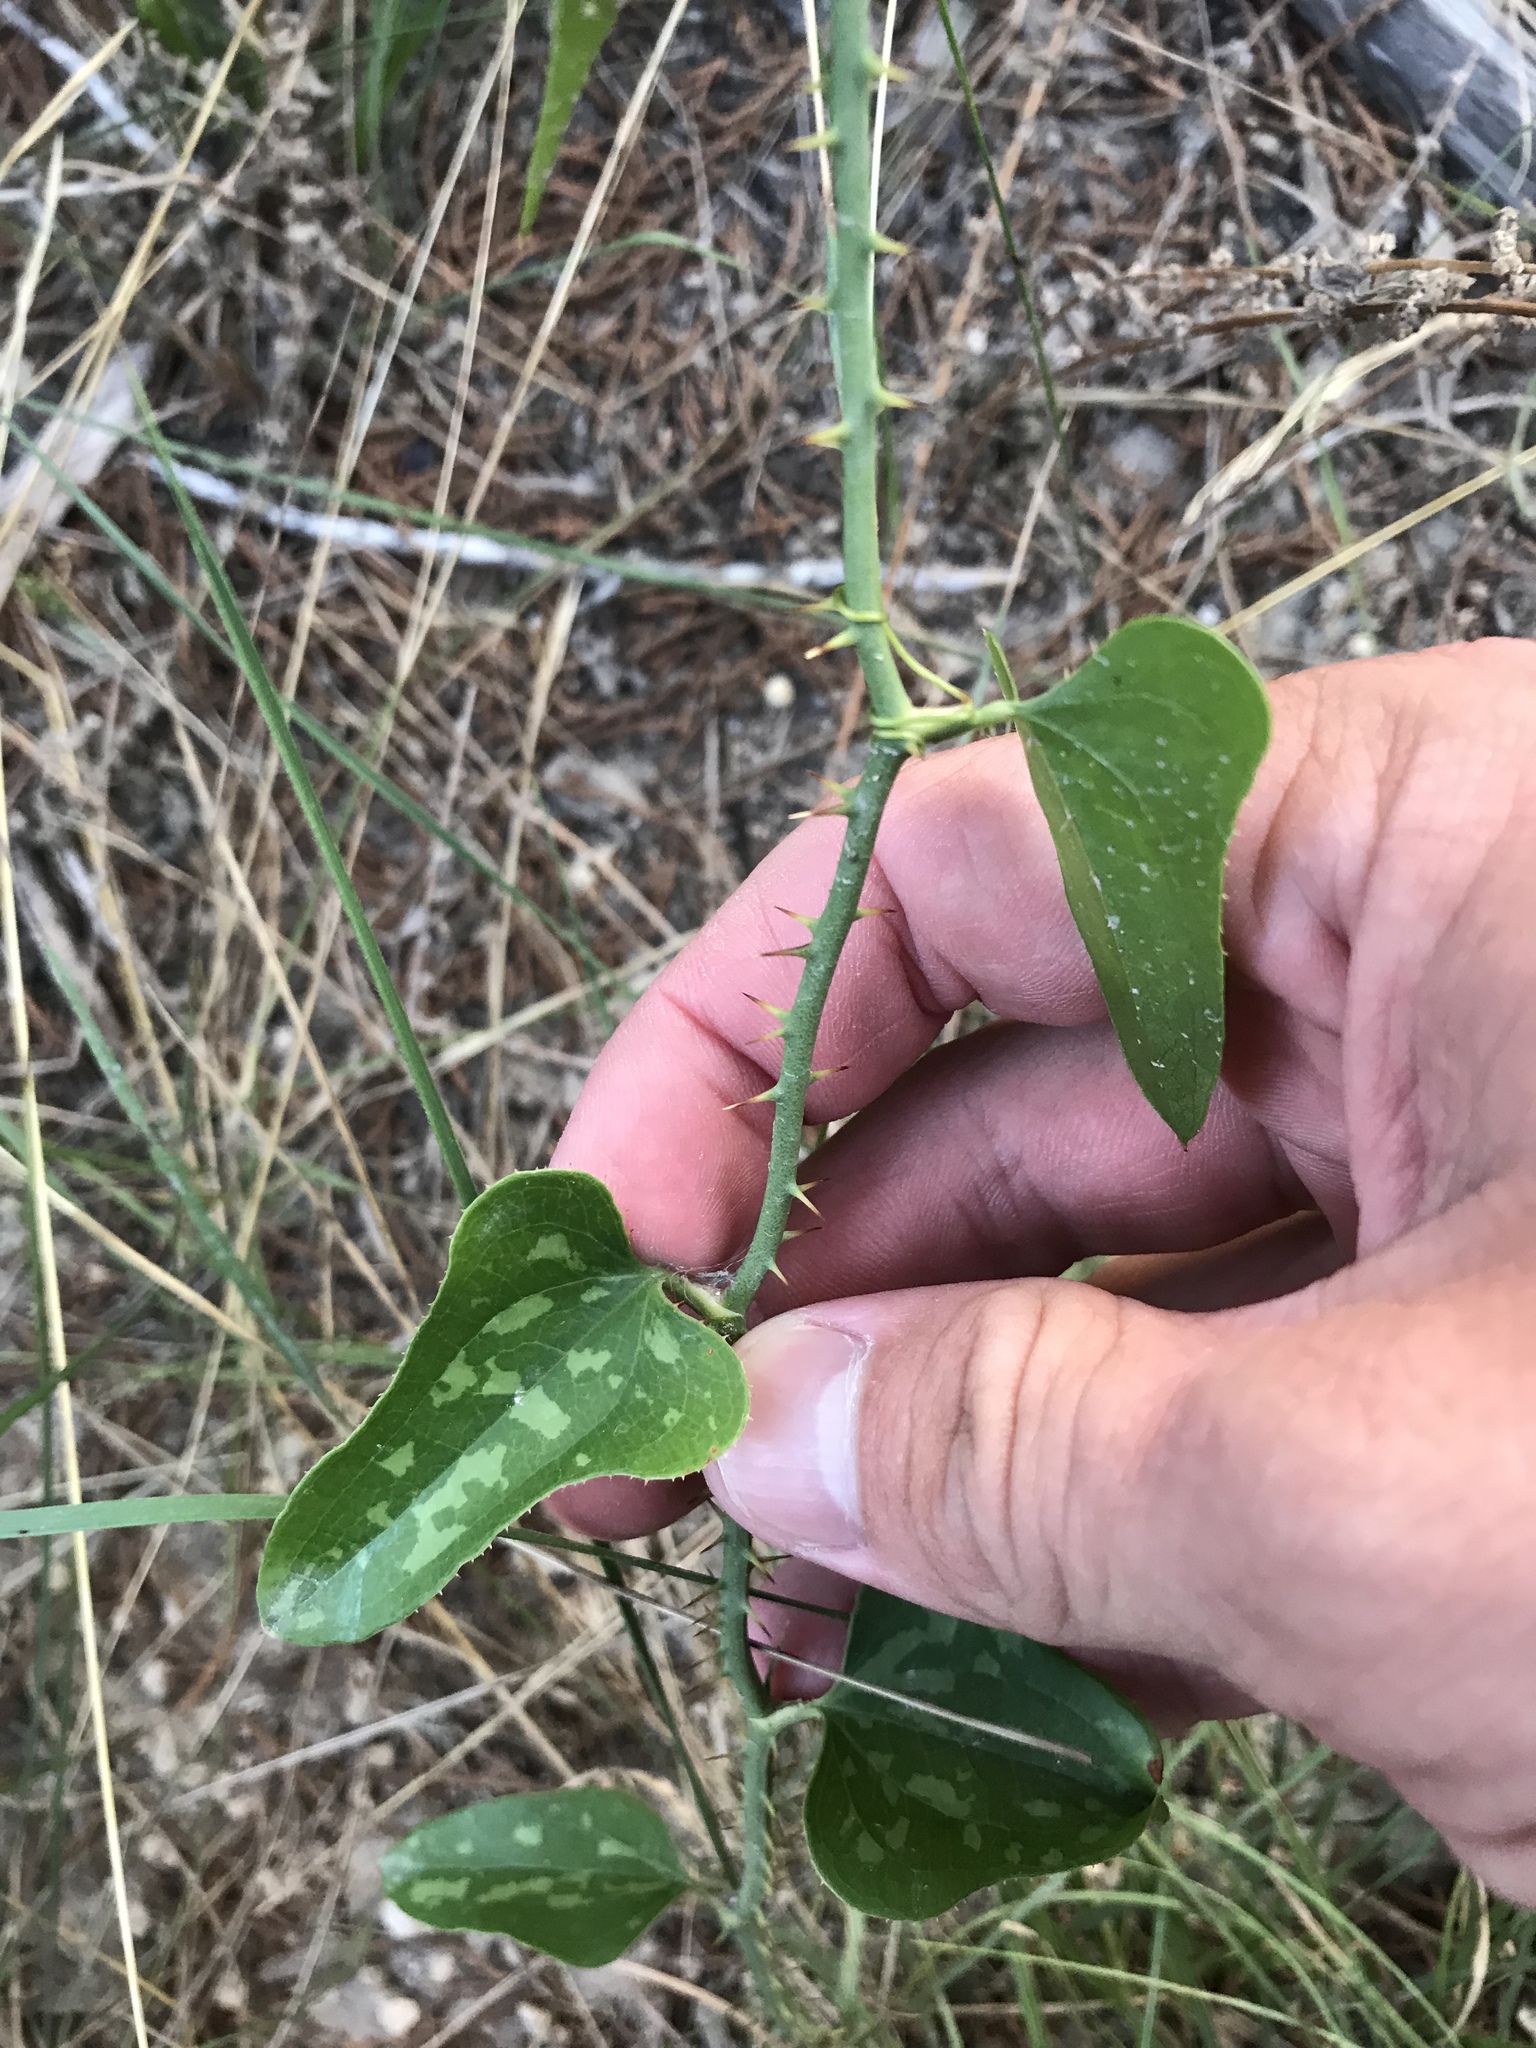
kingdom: Plantae
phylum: Tracheophyta
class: Liliopsida
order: Liliales
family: Smilacaceae
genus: Smilax
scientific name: Smilax bona-nox
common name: Catbrier
